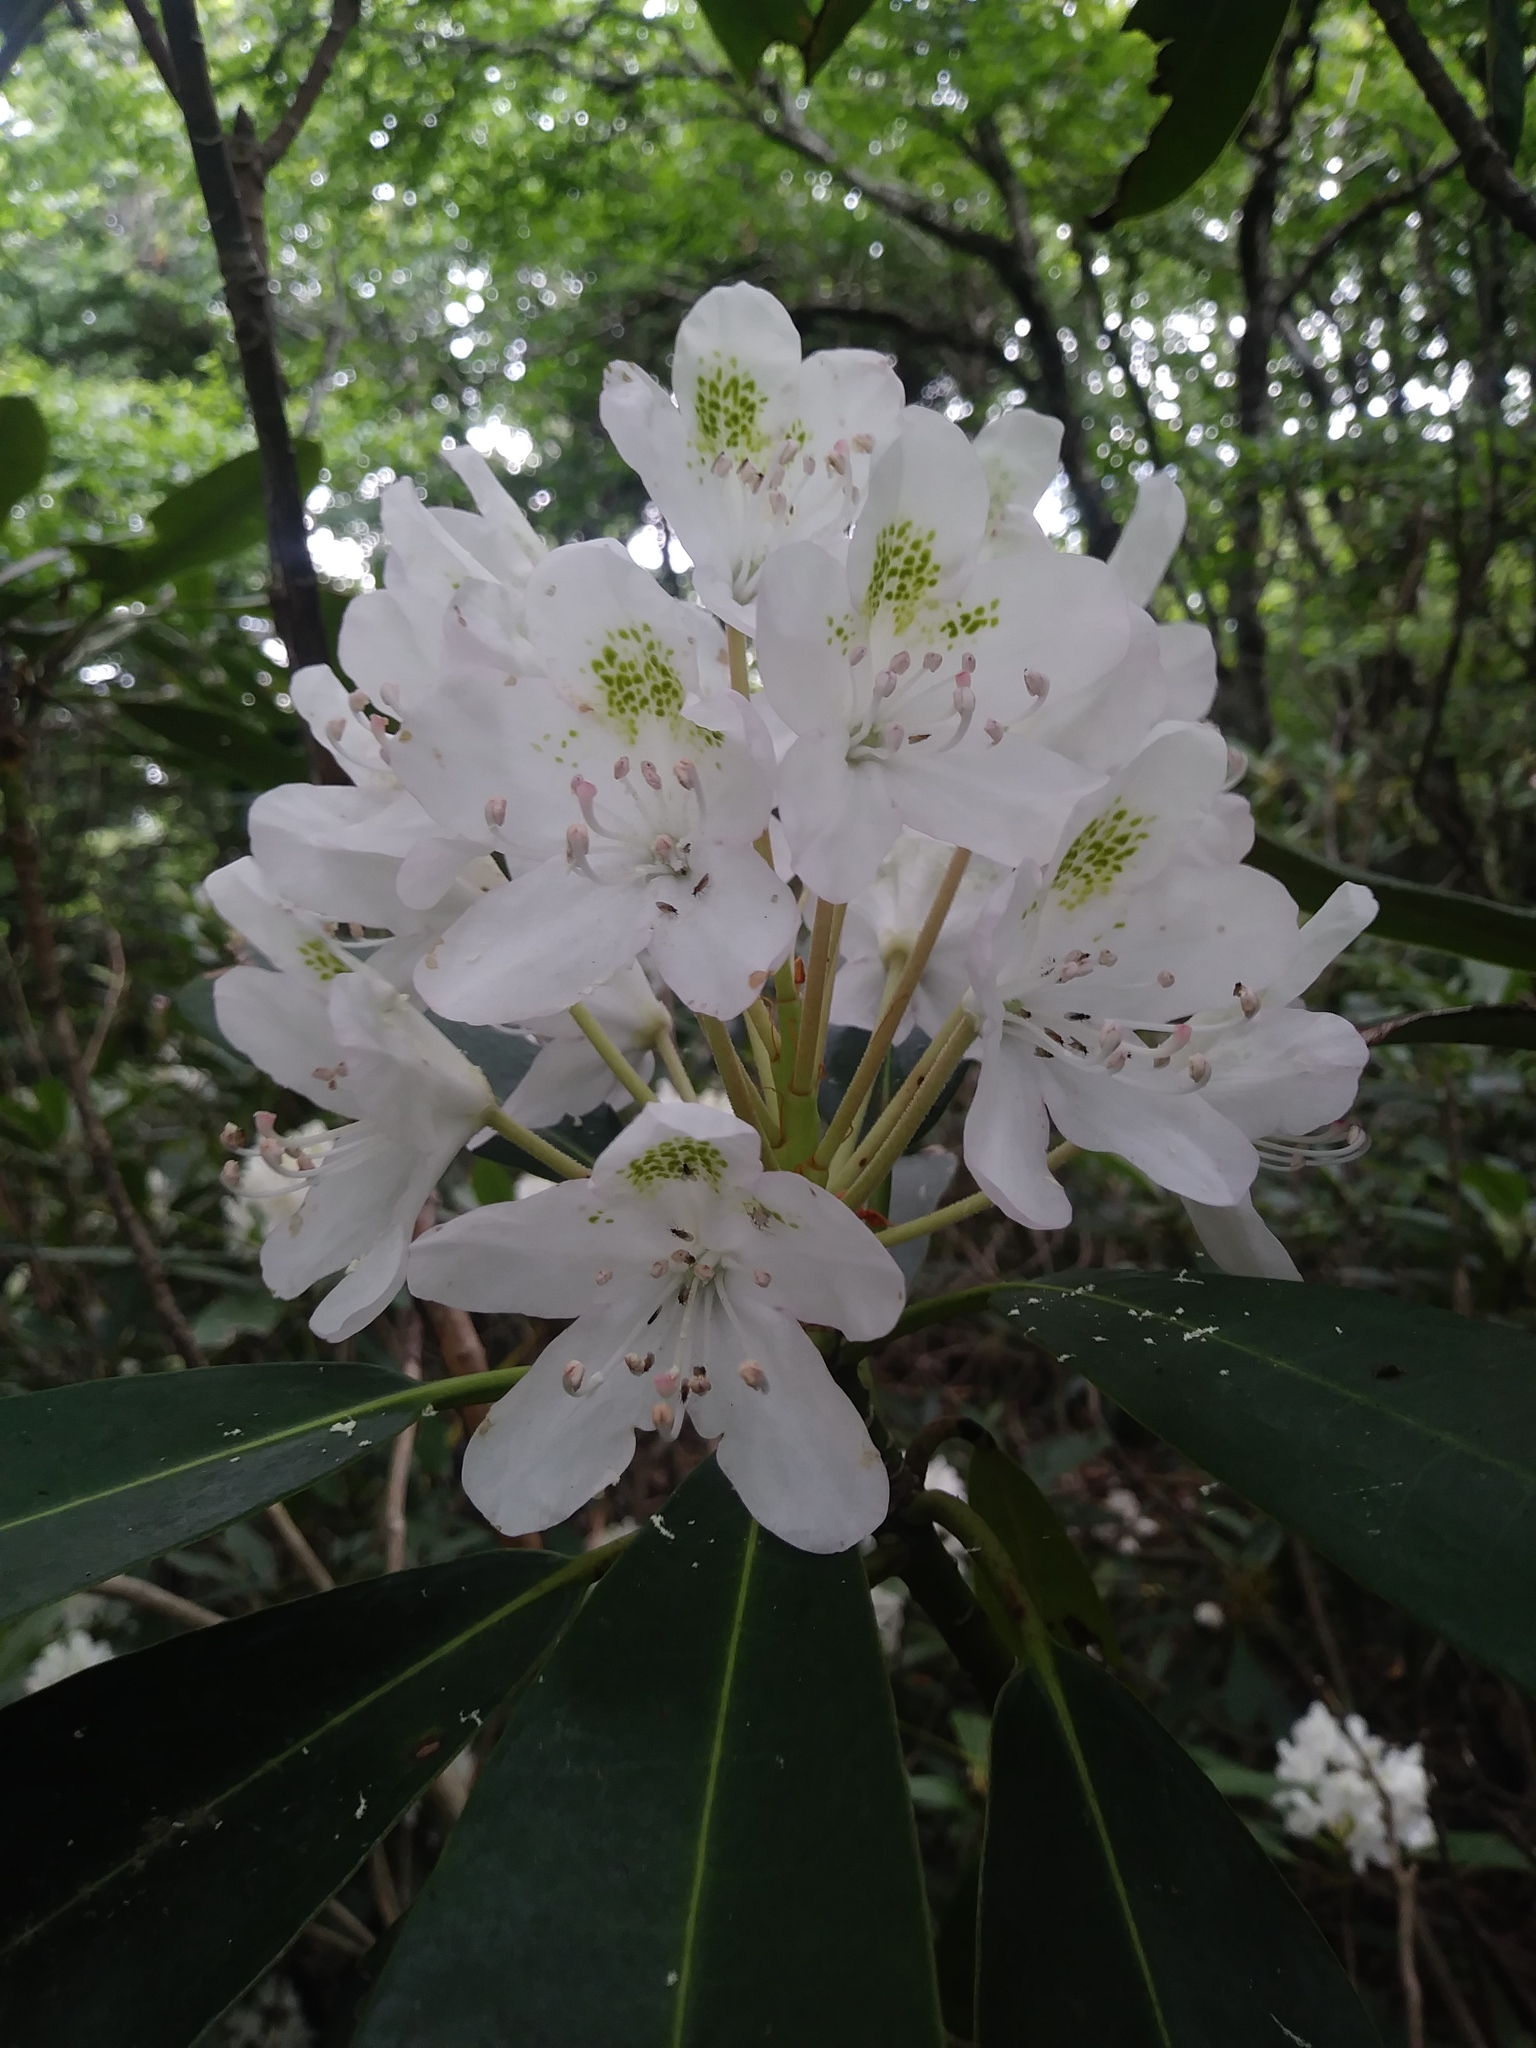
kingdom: Plantae
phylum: Tracheophyta
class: Magnoliopsida
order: Ericales
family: Ericaceae
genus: Rhododendron
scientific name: Rhododendron maximum
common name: Great rhododendron
